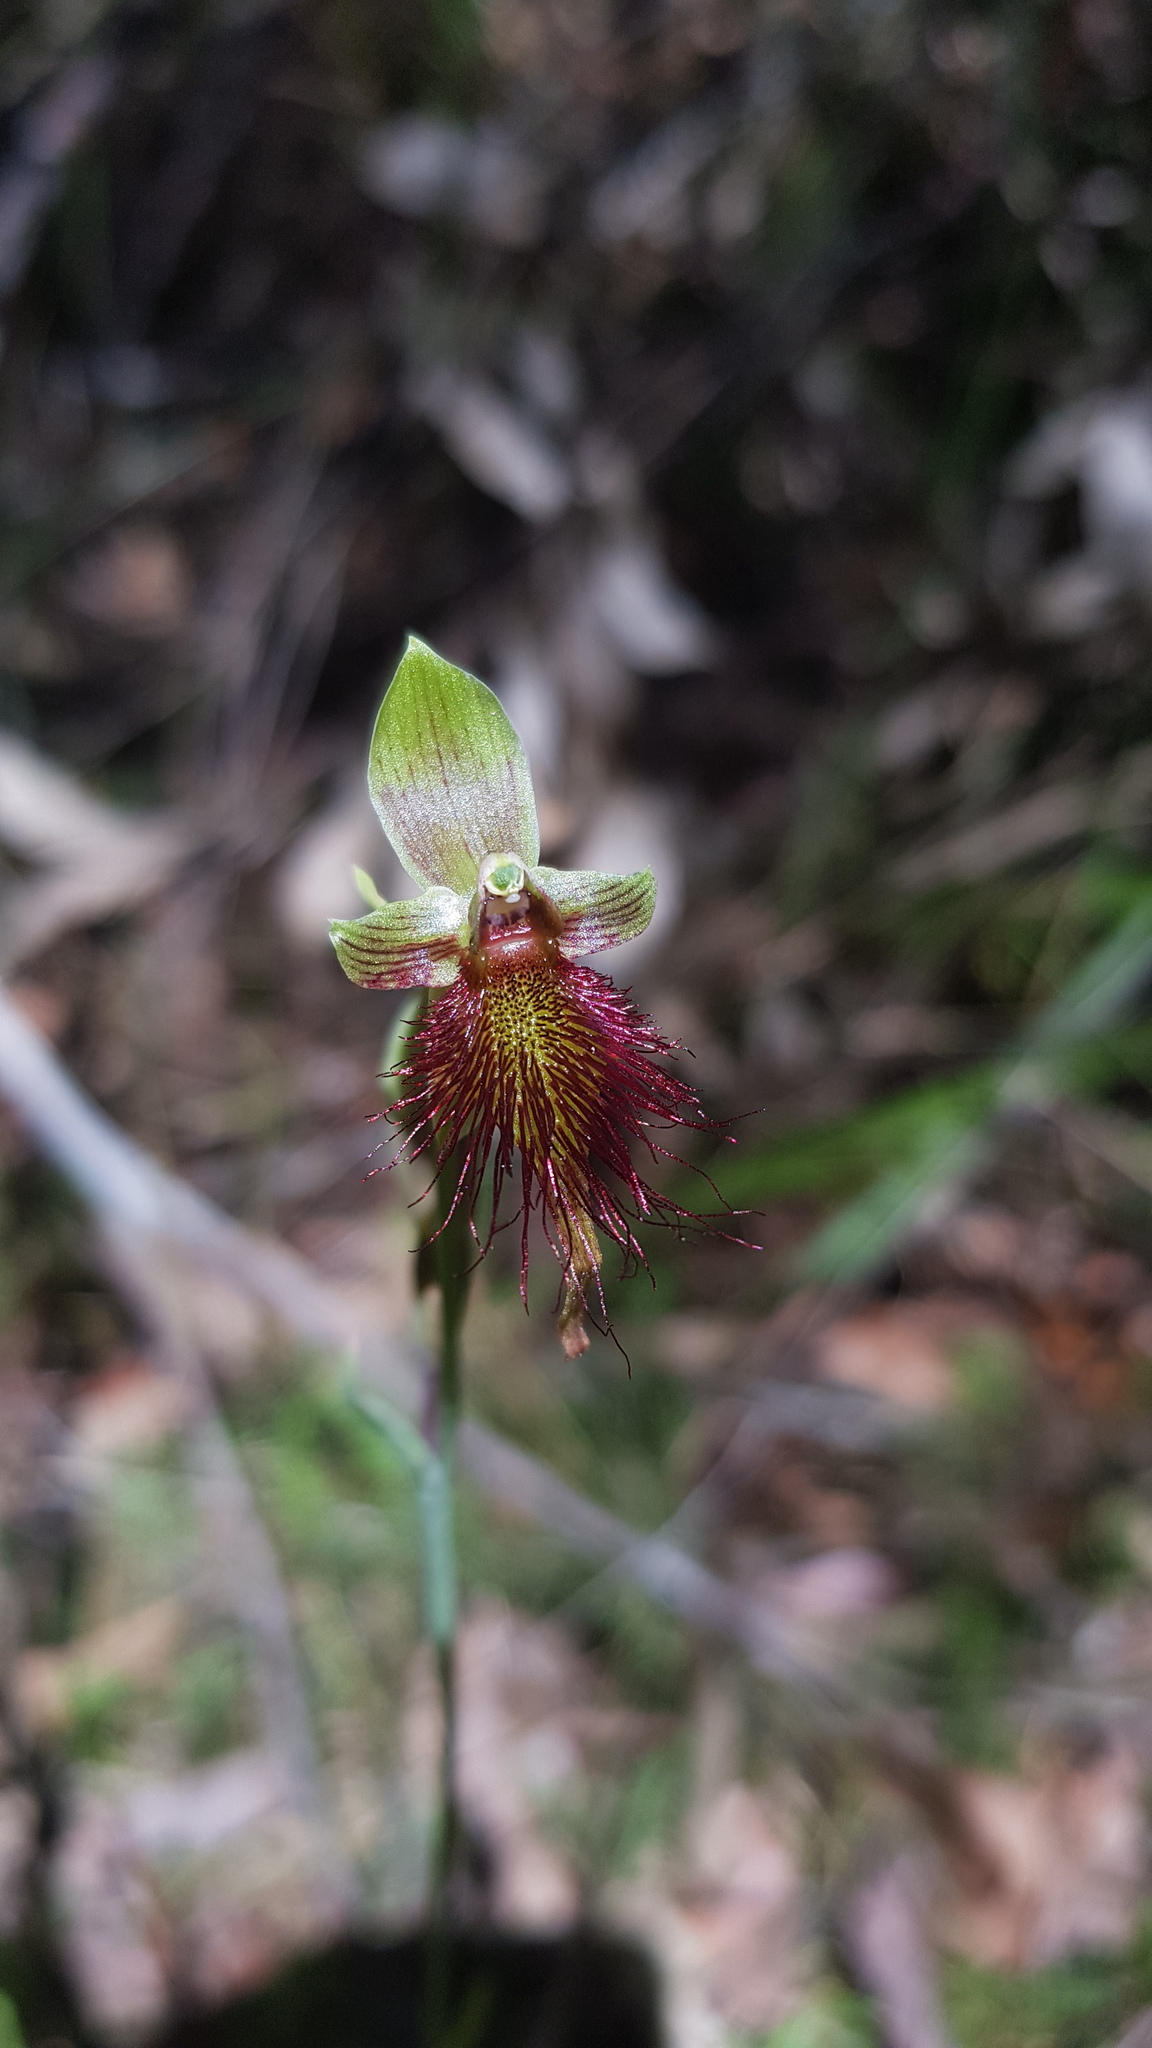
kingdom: Plantae
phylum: Tracheophyta
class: Liliopsida
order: Asparagales
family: Orchidaceae
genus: Calochilus
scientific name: Calochilus paludosus
